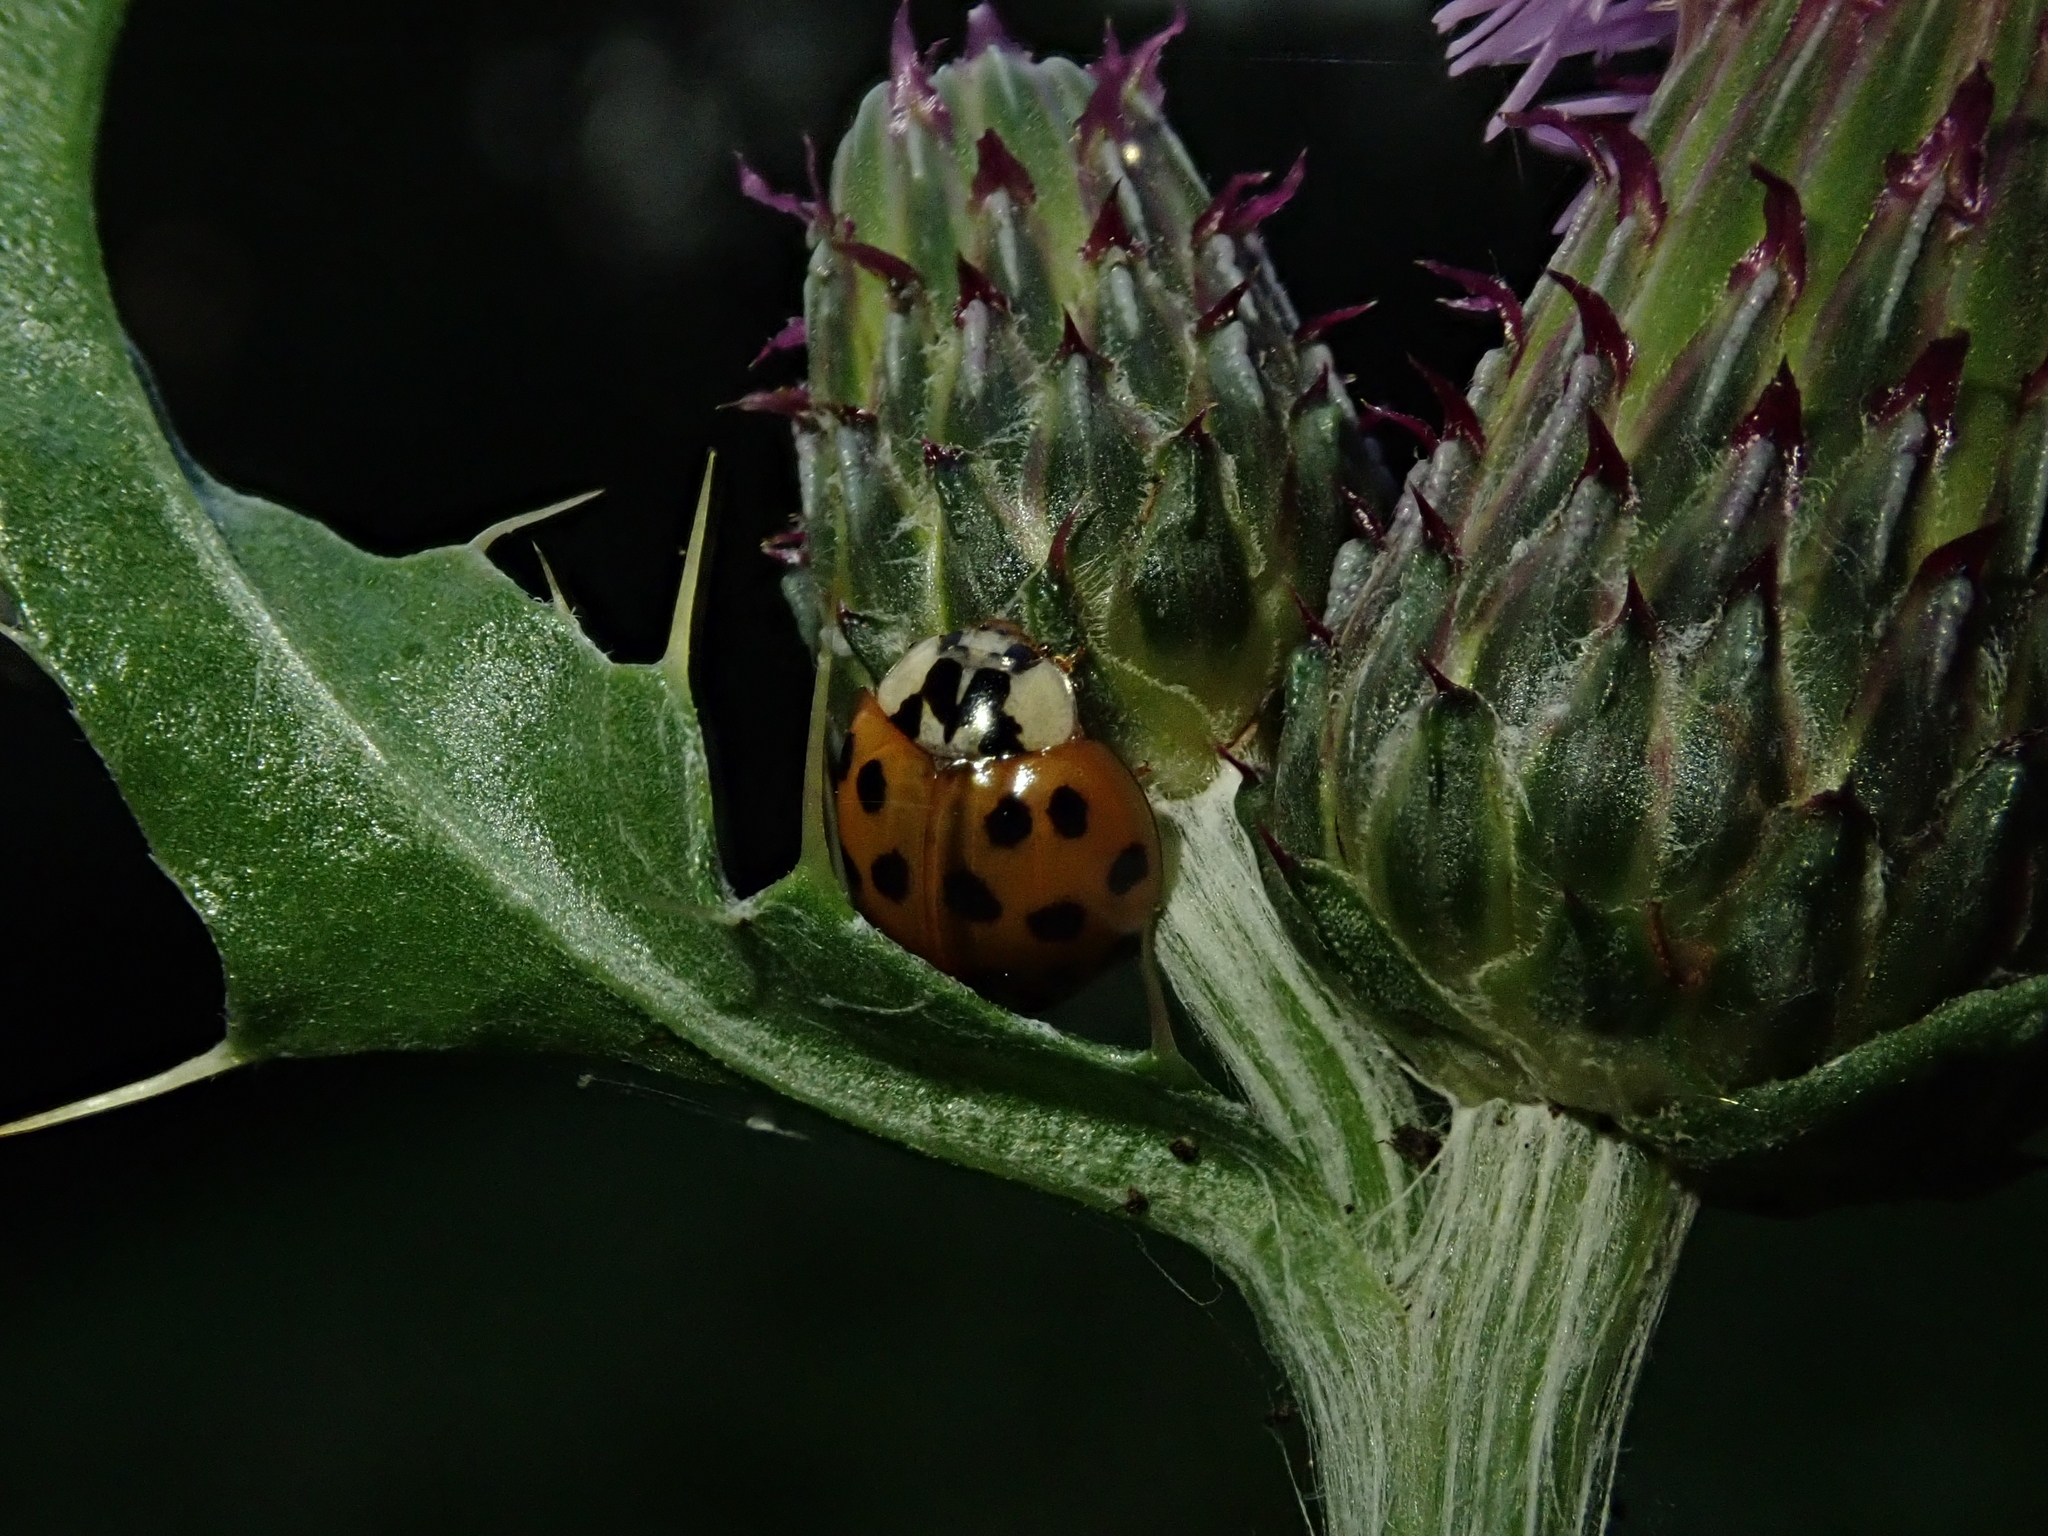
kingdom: Animalia
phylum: Arthropoda
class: Insecta
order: Coleoptera
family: Coccinellidae
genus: Harmonia
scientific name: Harmonia axyridis
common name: Harlequin ladybird
